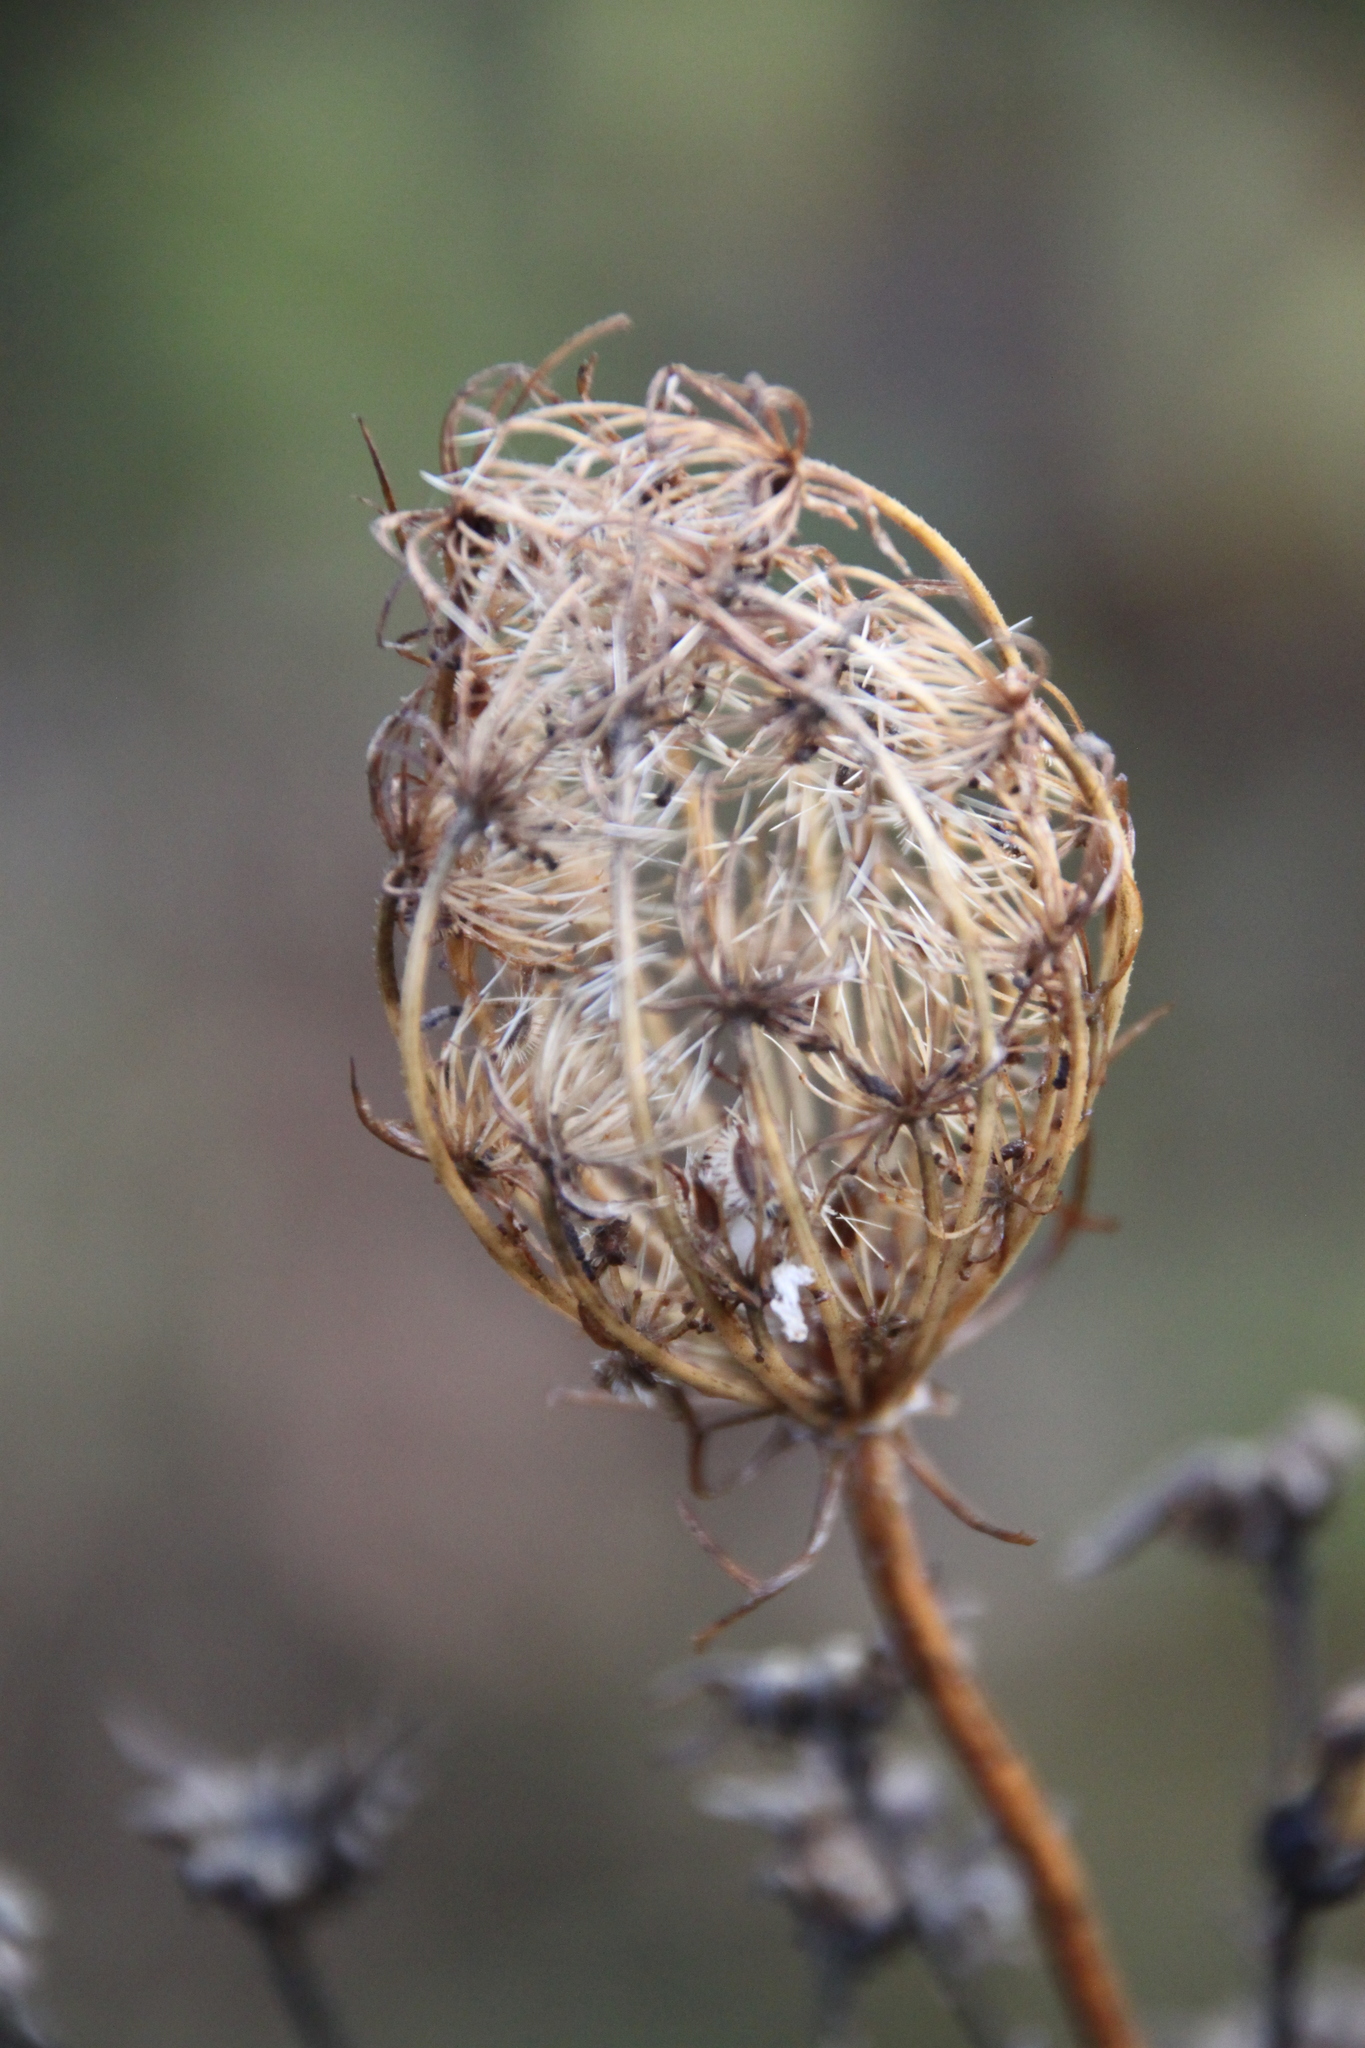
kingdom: Plantae
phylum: Tracheophyta
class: Magnoliopsida
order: Apiales
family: Apiaceae
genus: Daucus
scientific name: Daucus carota
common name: Wild carrot
